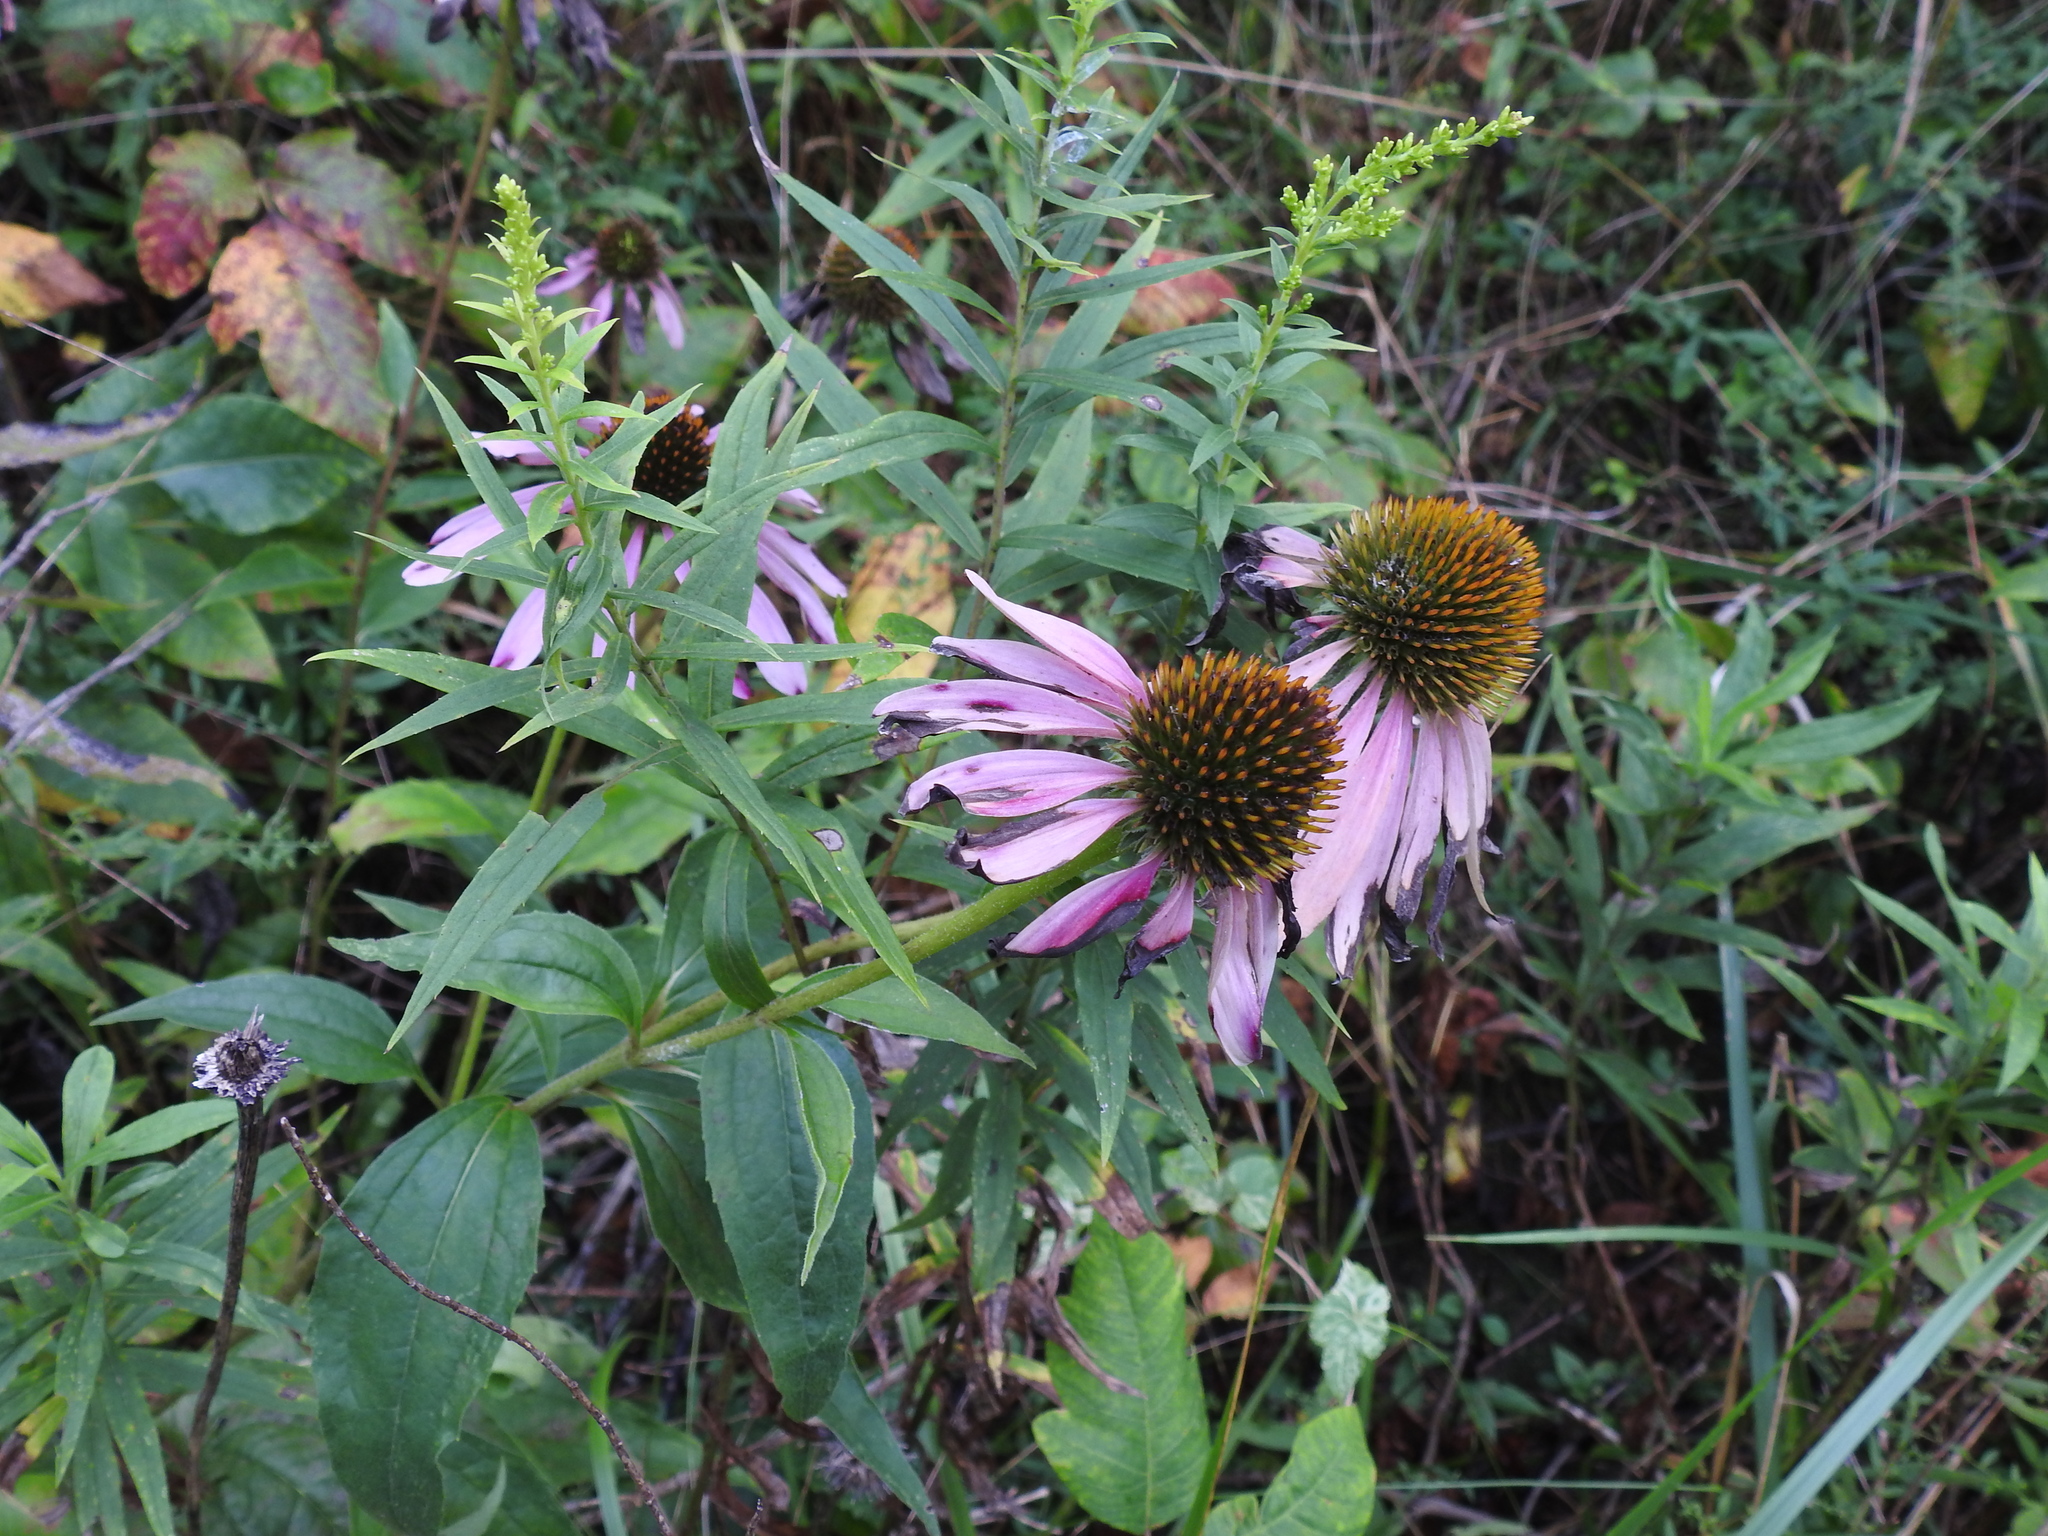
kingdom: Plantae
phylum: Tracheophyta
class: Magnoliopsida
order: Asterales
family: Asteraceae
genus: Echinacea
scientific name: Echinacea purpurea
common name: Broad-leaved purple coneflower
